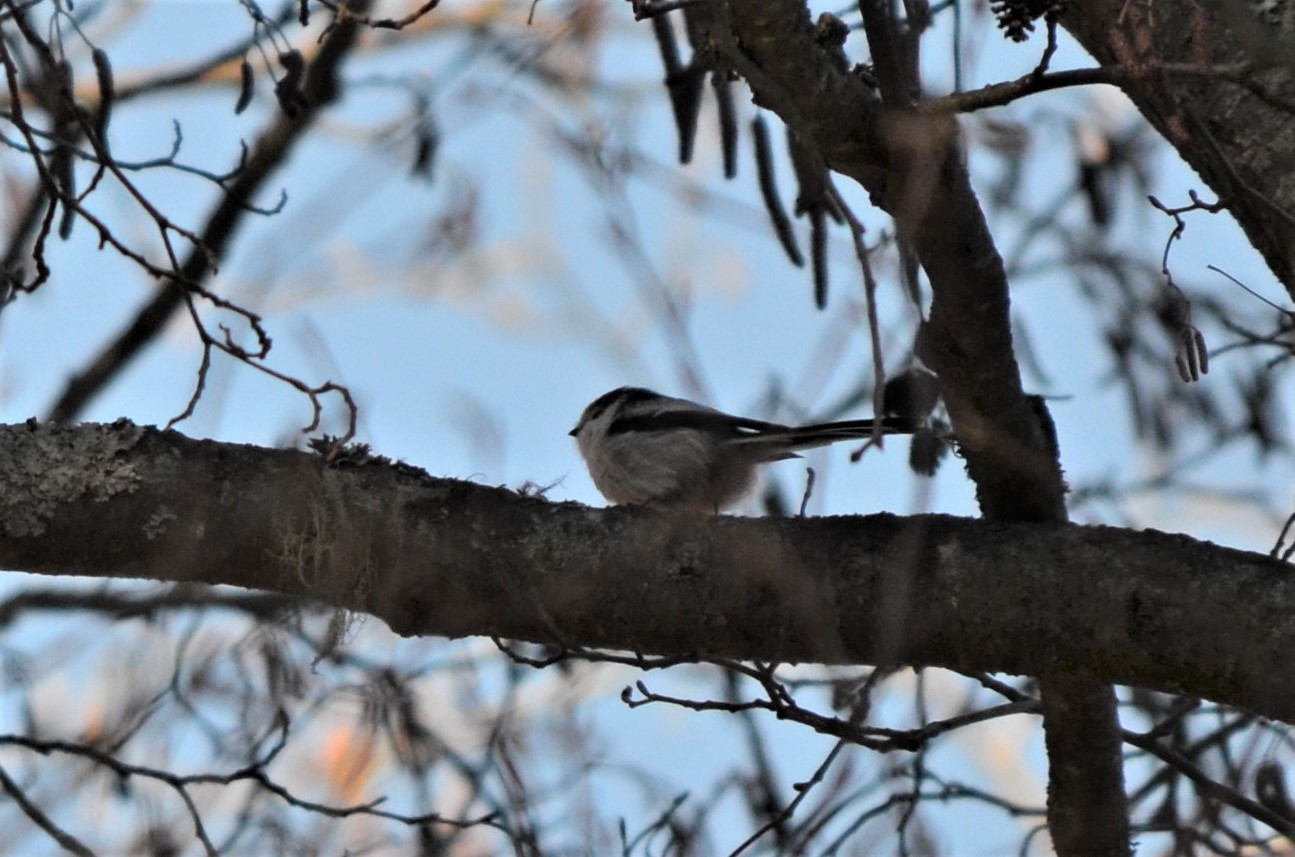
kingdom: Animalia
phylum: Chordata
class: Aves
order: Passeriformes
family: Aegithalidae
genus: Aegithalos
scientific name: Aegithalos caudatus
